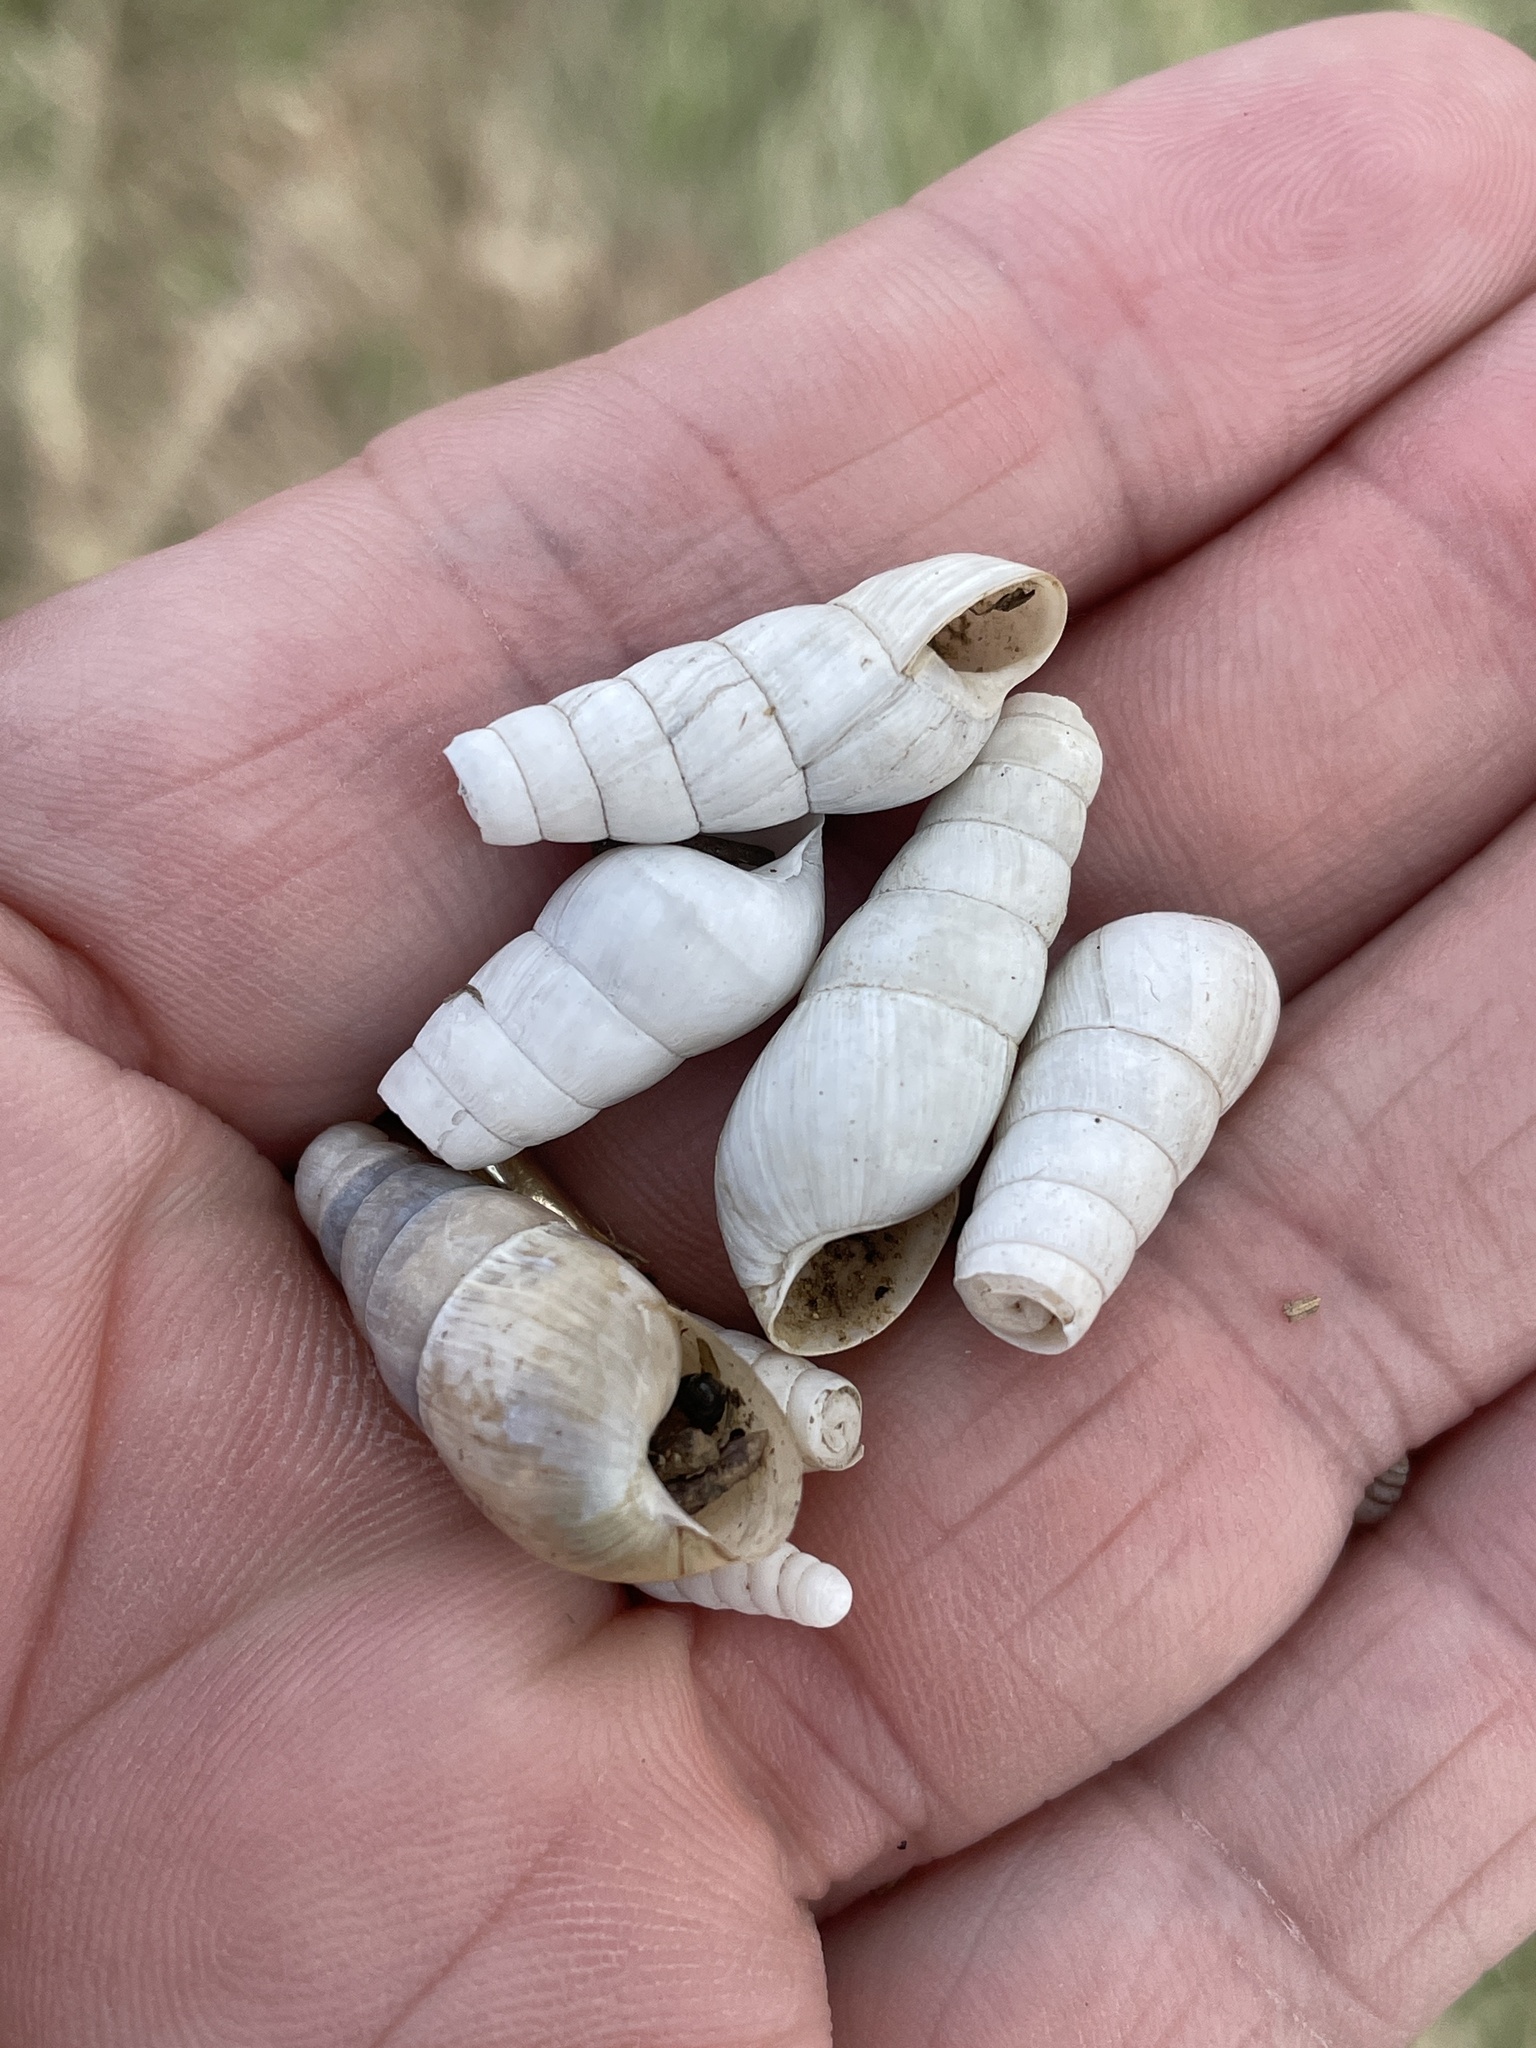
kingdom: Animalia
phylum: Mollusca
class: Gastropoda
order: Stylommatophora
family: Achatinidae
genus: Rumina
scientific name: Rumina decollata
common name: Decollate snail
